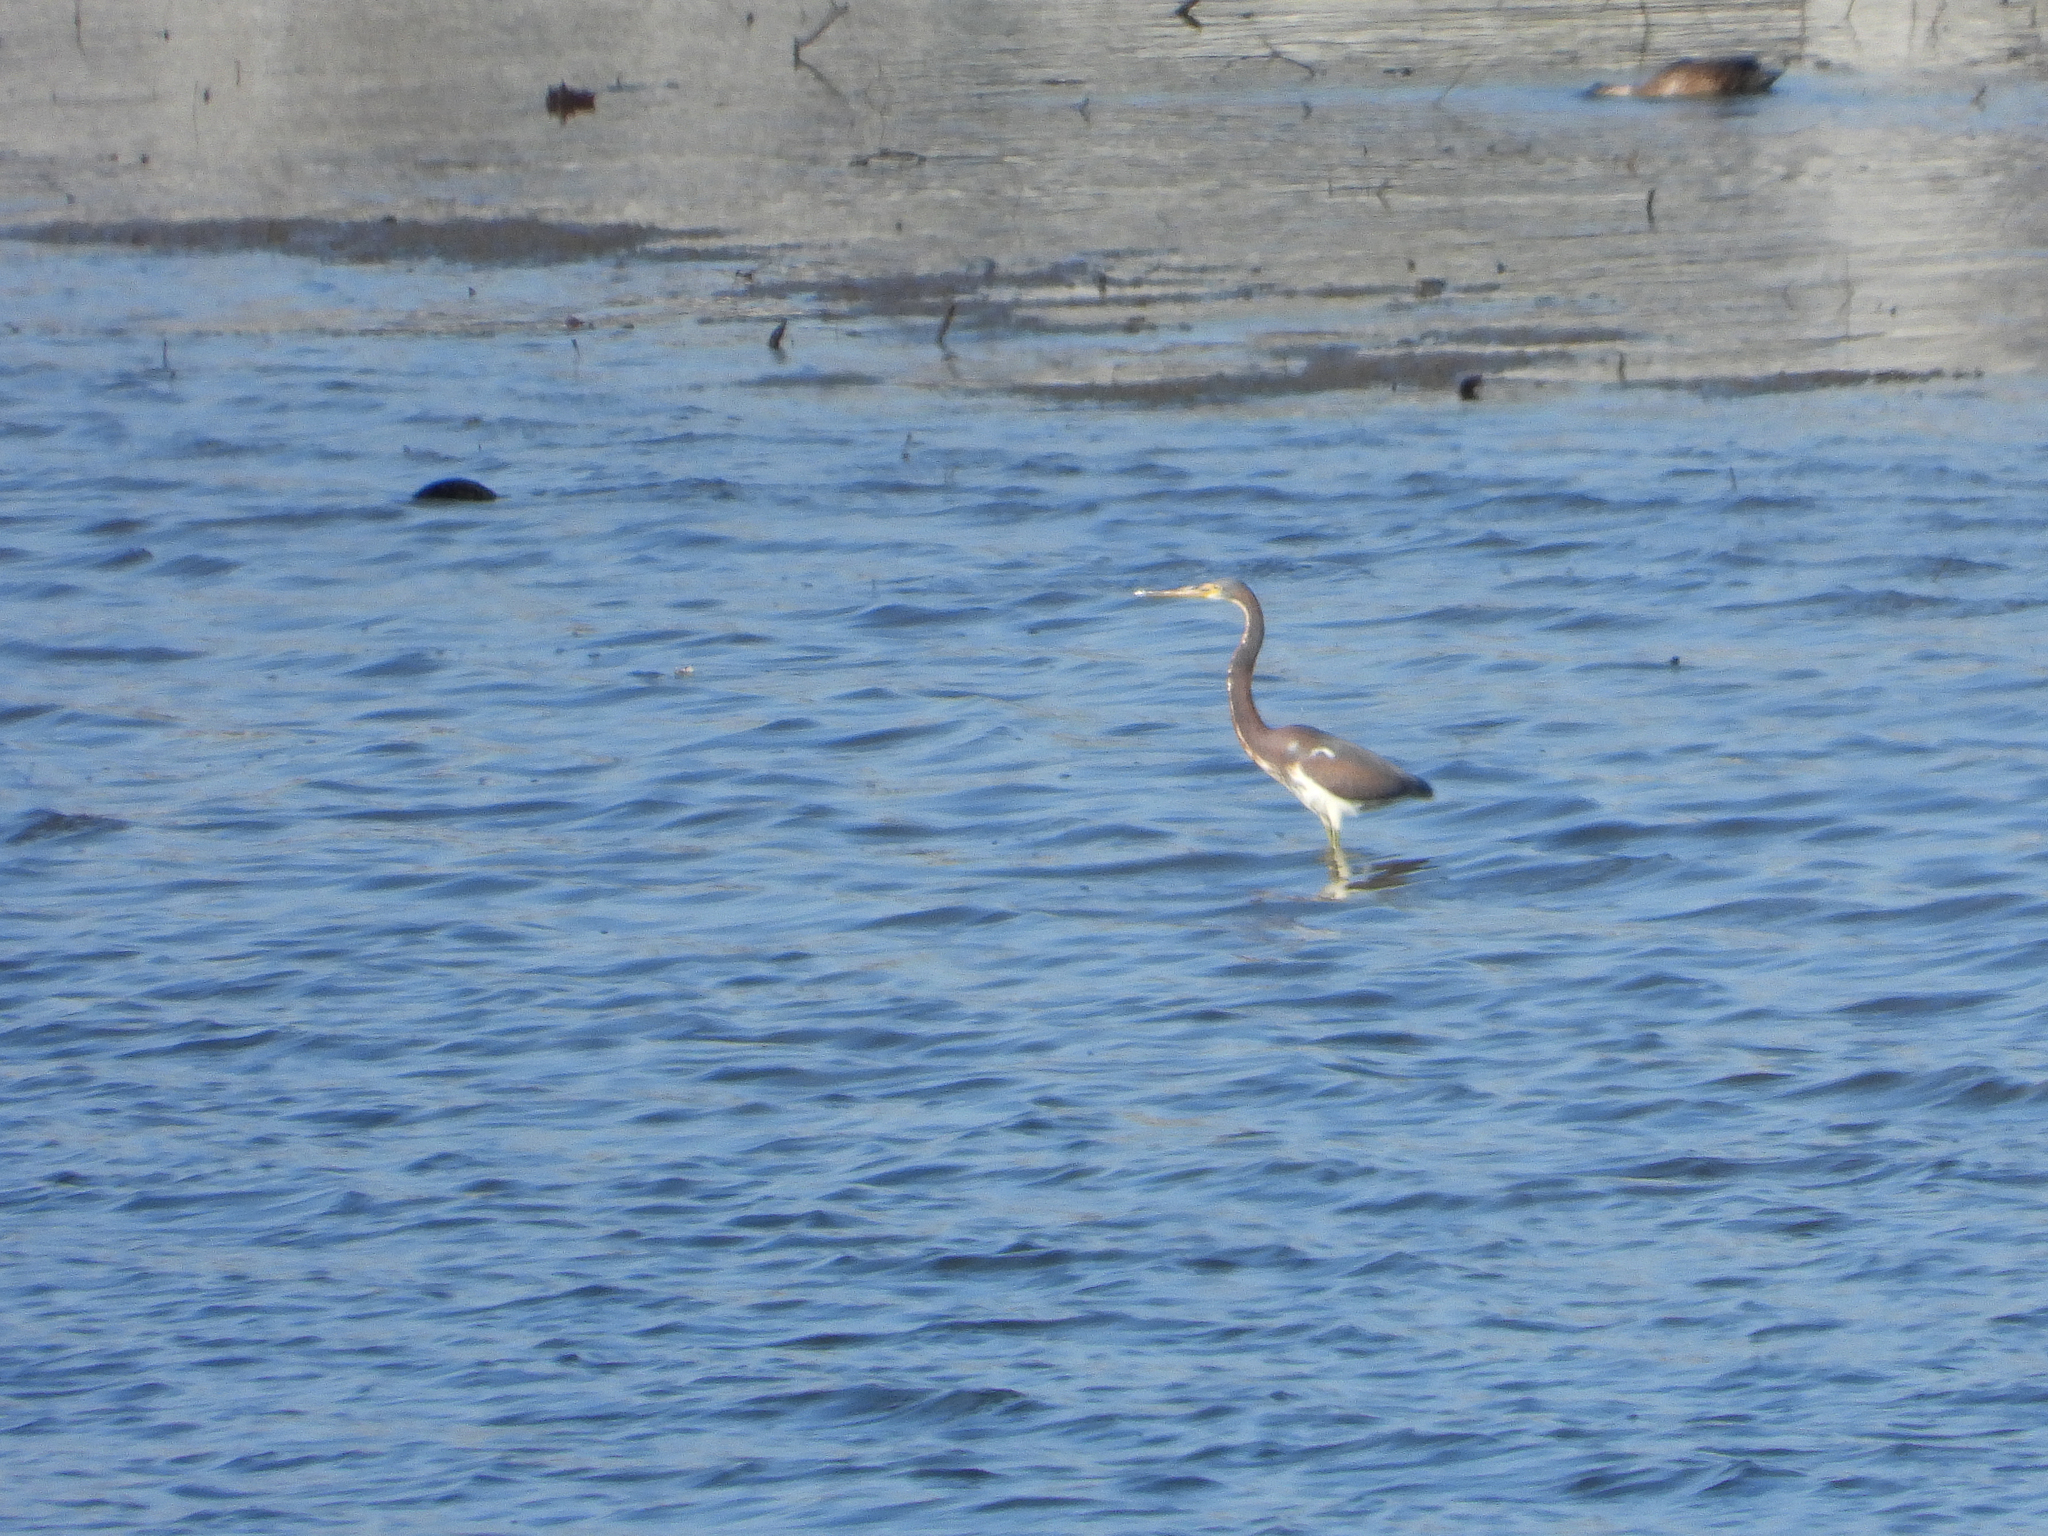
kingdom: Animalia
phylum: Chordata
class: Aves
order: Pelecaniformes
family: Ardeidae
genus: Egretta
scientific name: Egretta tricolor
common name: Tricolored heron
